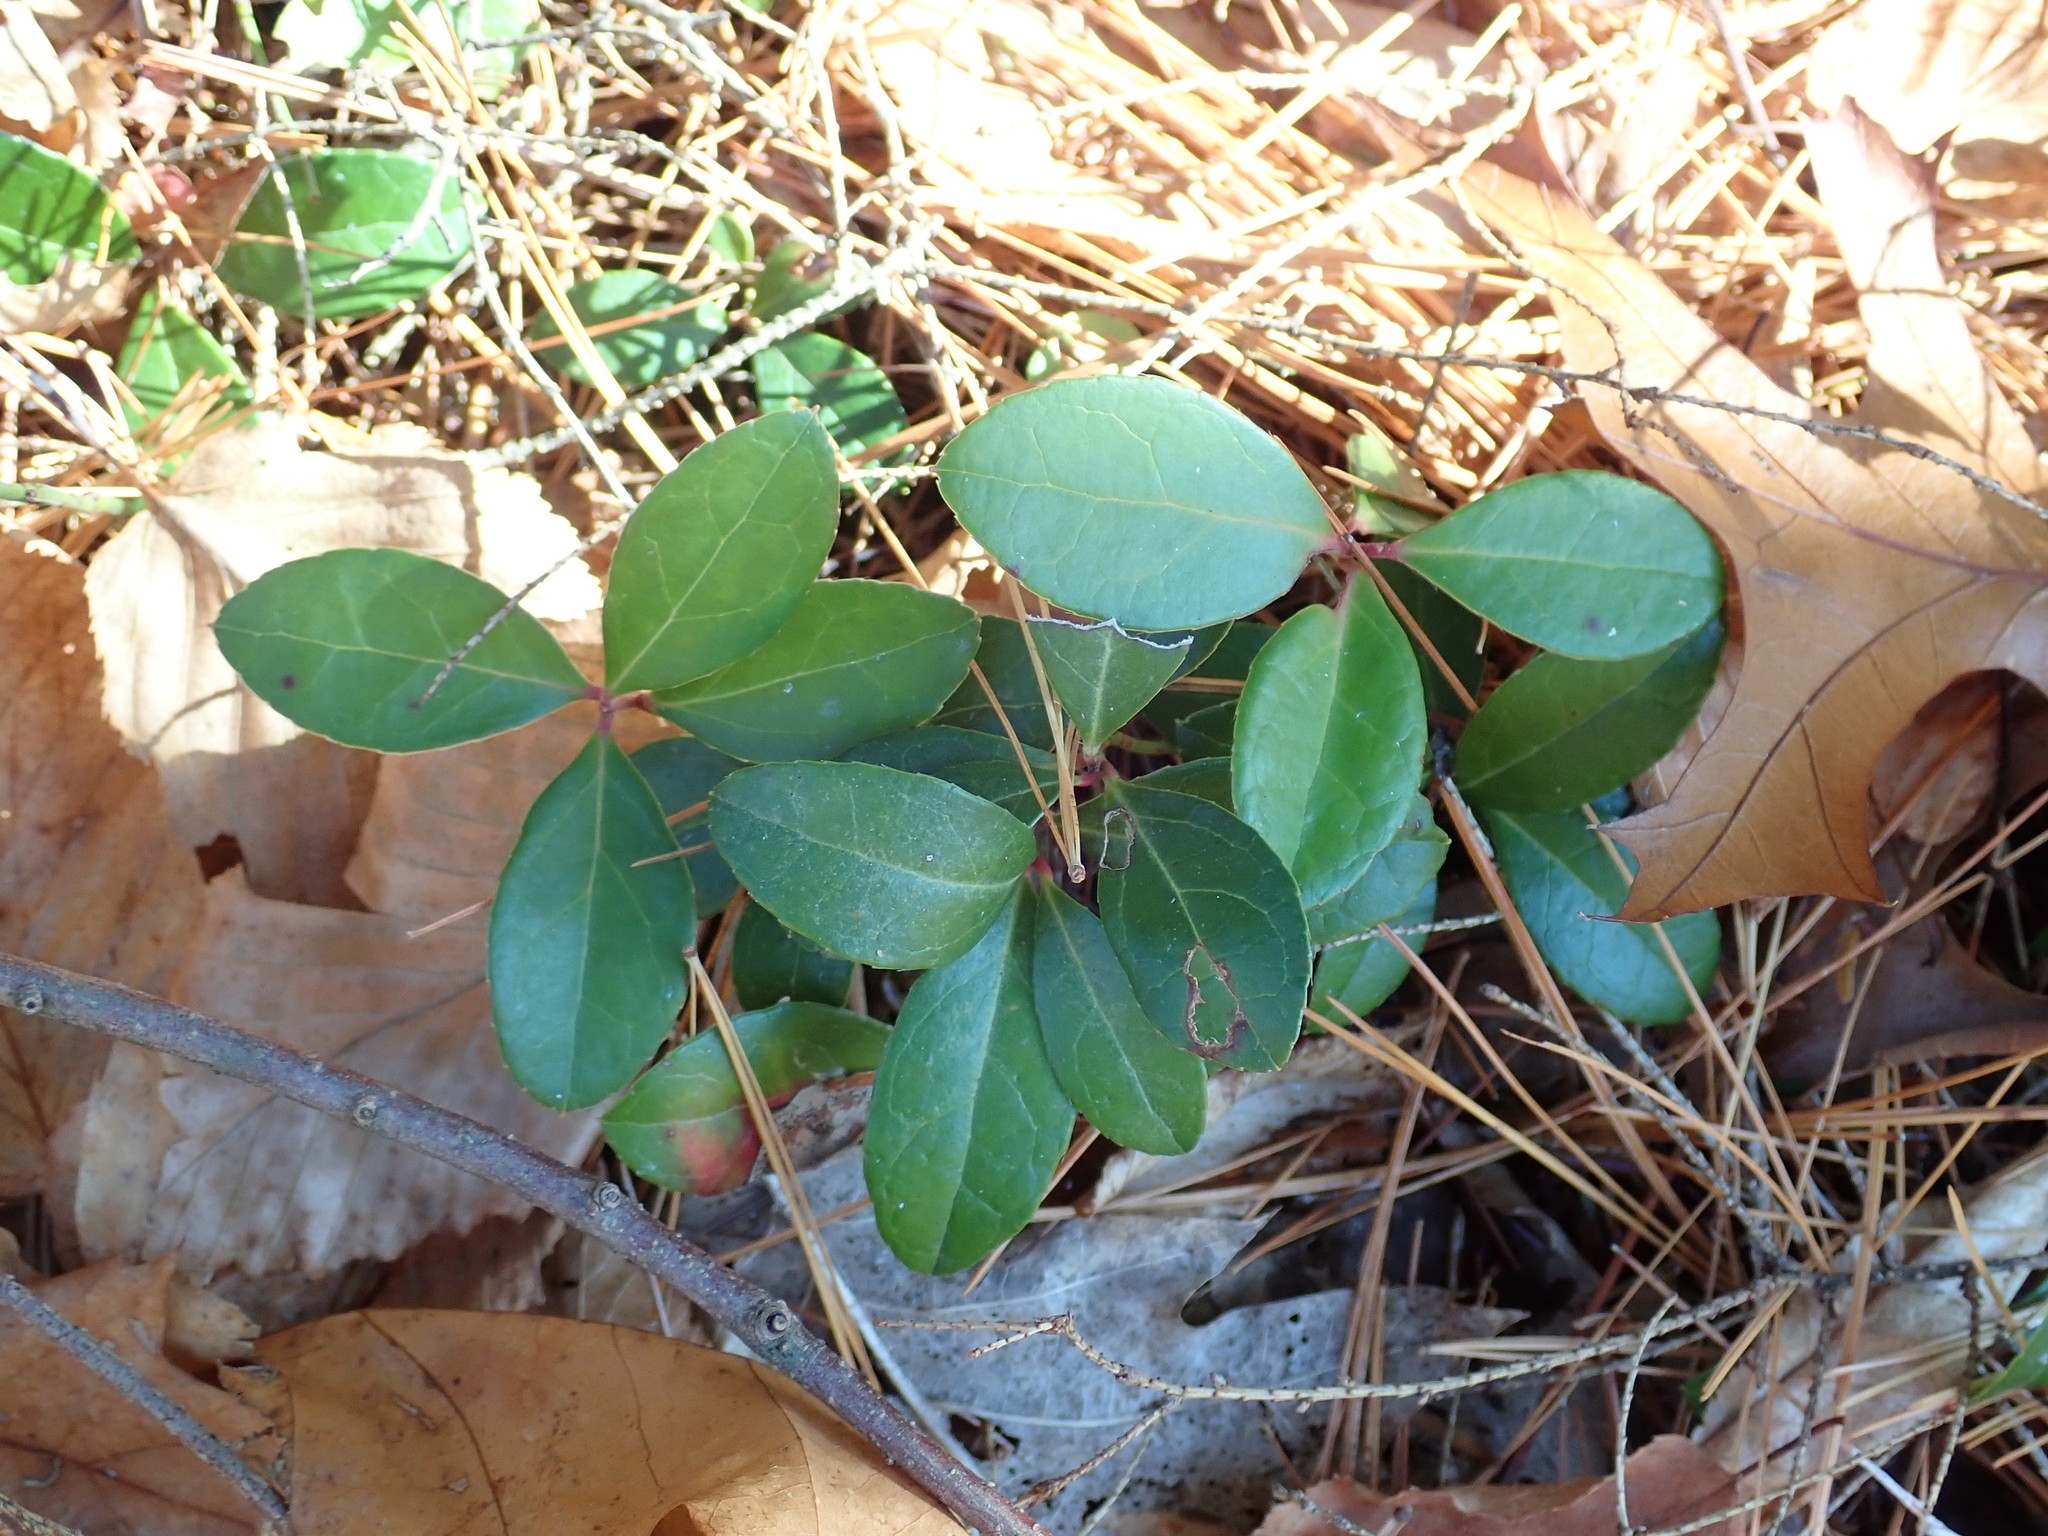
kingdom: Plantae
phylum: Tracheophyta
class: Magnoliopsida
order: Ericales
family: Ericaceae
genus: Gaultheria
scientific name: Gaultheria procumbens
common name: Checkerberry
